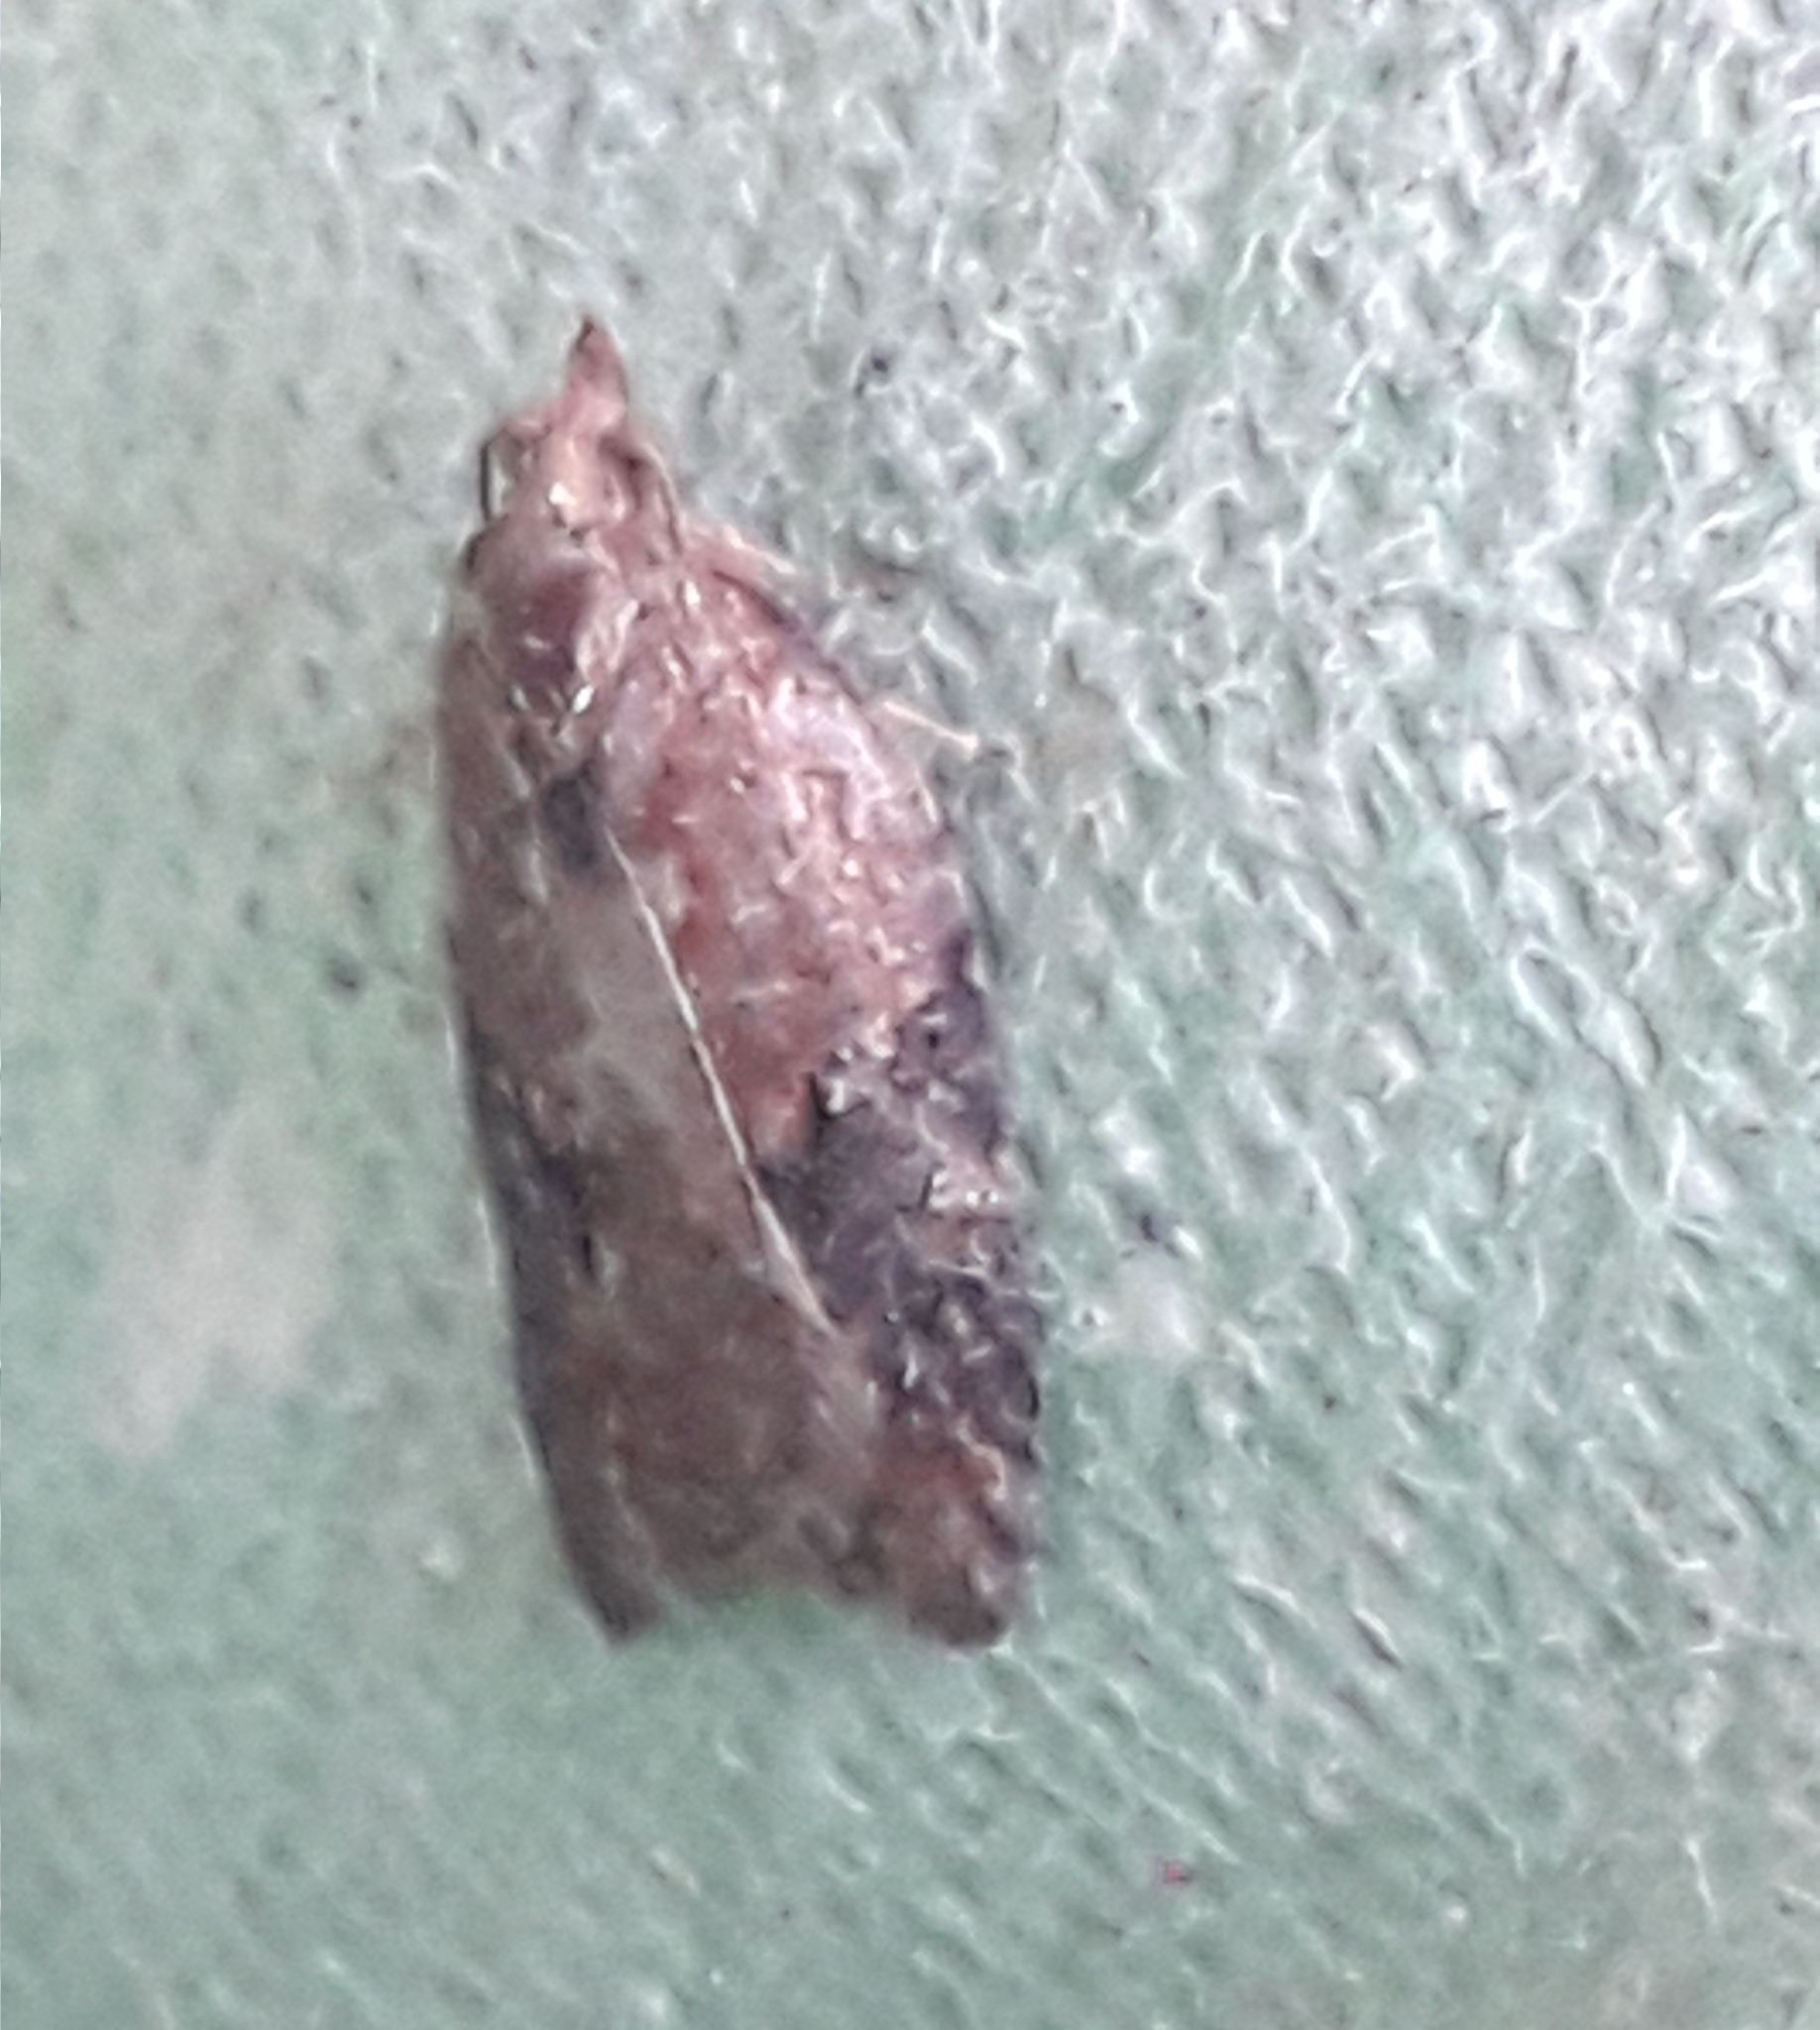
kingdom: Animalia
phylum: Arthropoda
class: Insecta
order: Lepidoptera
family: Tortricidae
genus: Epiphyas
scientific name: Epiphyas postvittana
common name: Light brown apple moth
